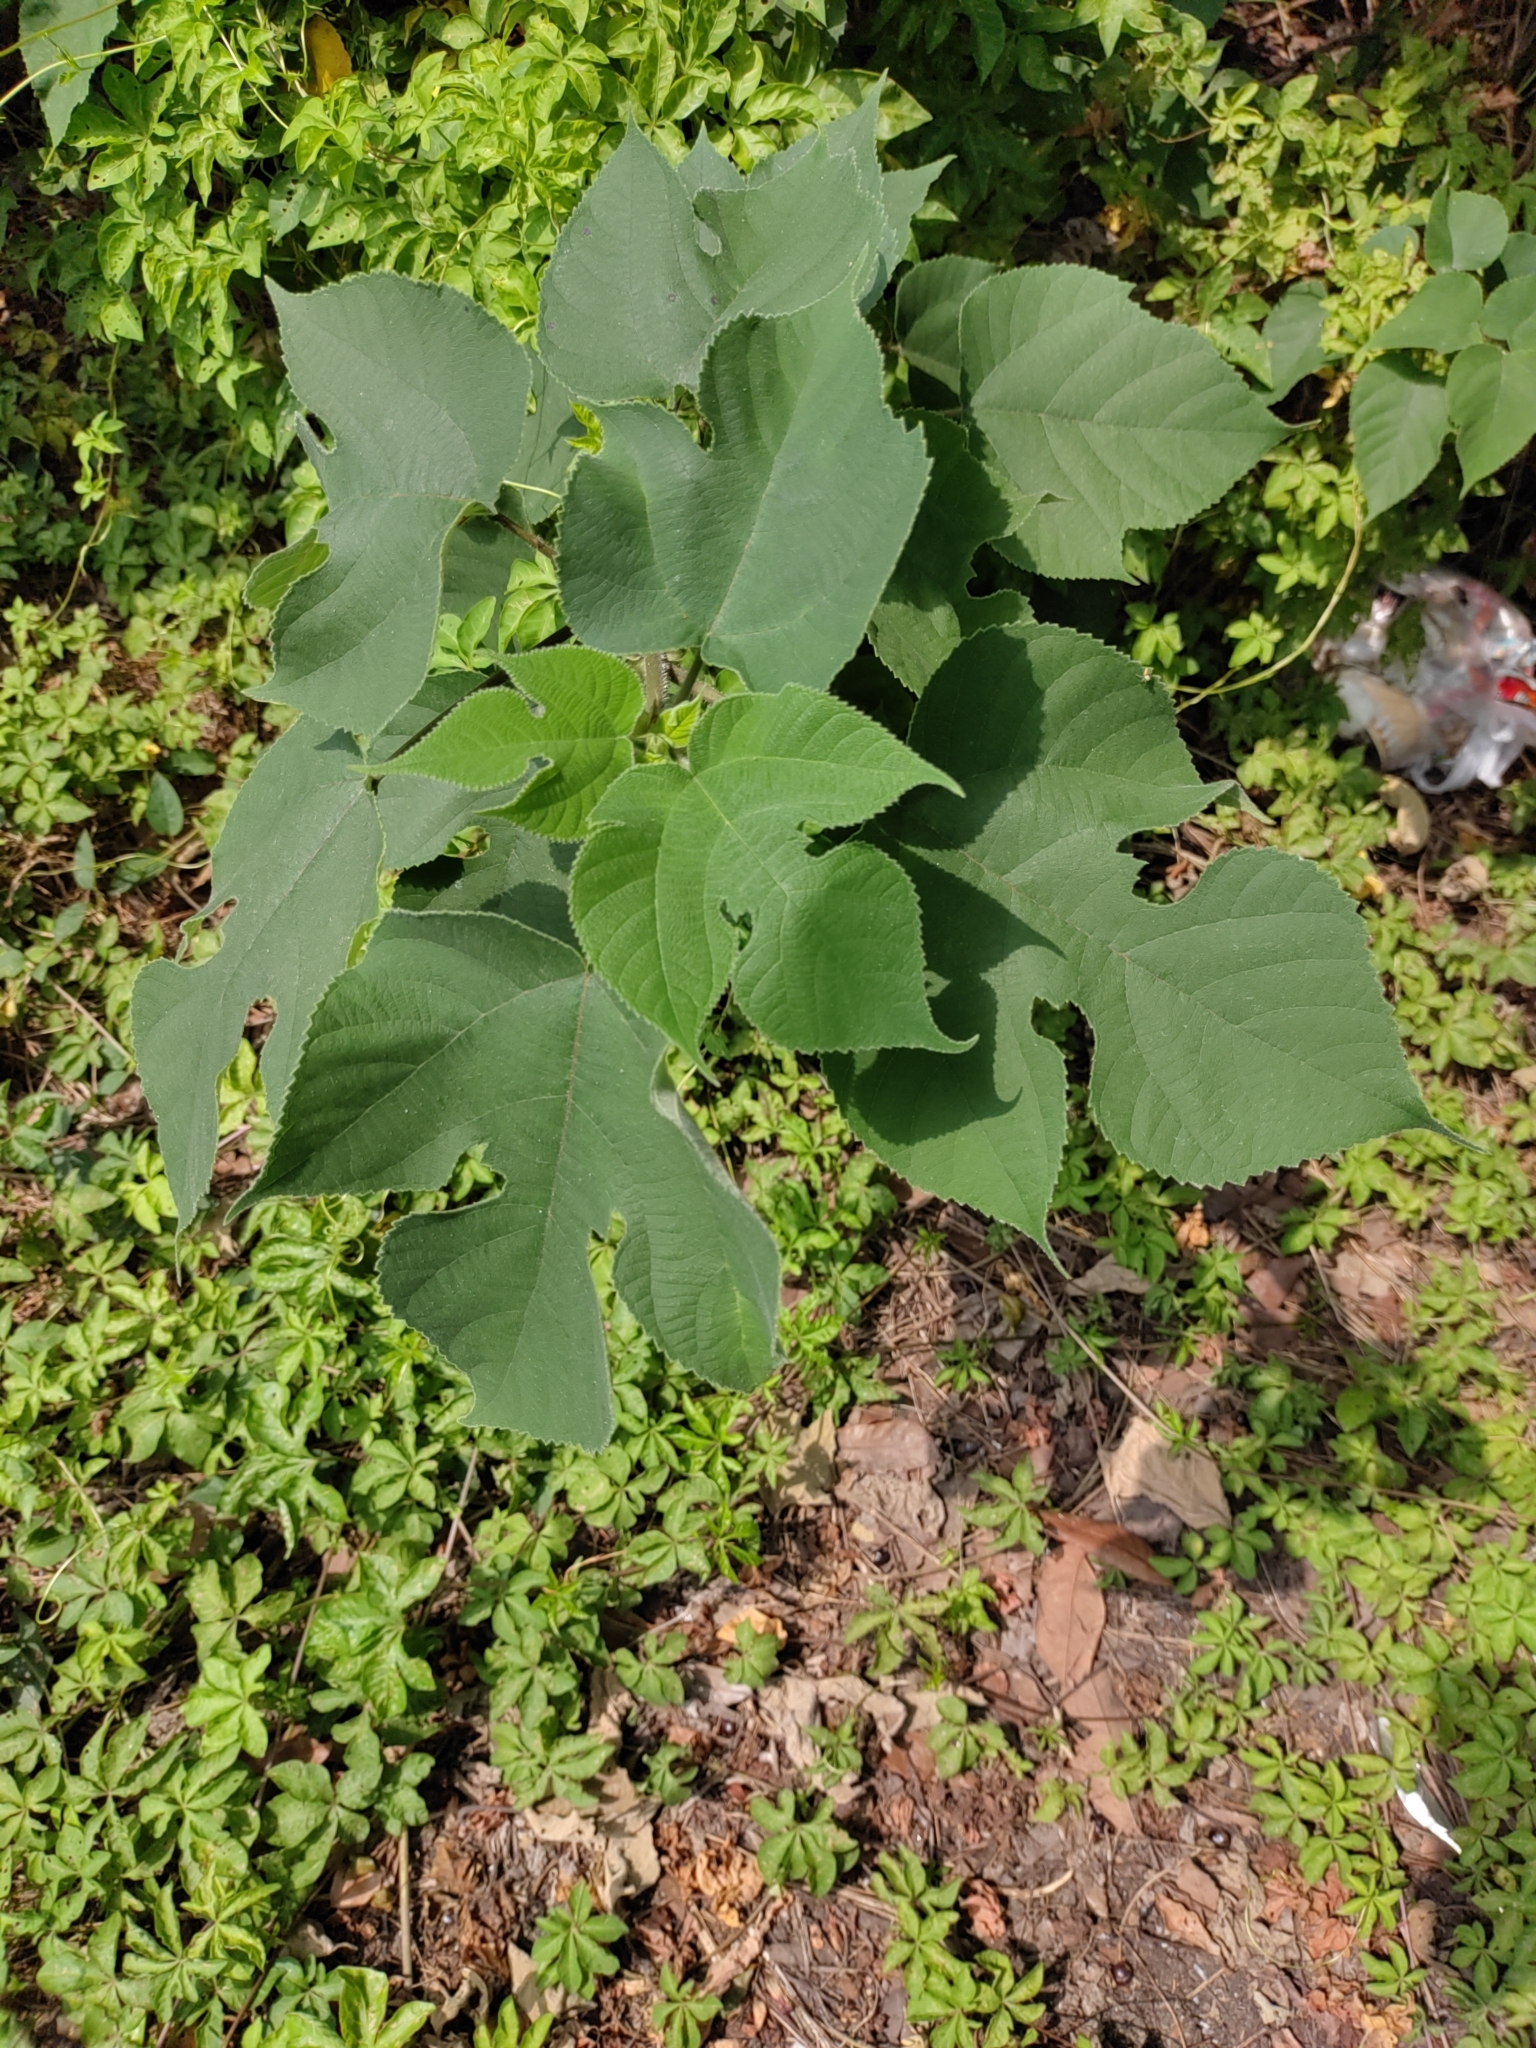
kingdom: Plantae
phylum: Tracheophyta
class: Magnoliopsida
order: Rosales
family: Moraceae
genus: Broussonetia
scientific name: Broussonetia papyrifera
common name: Paper mulberry
